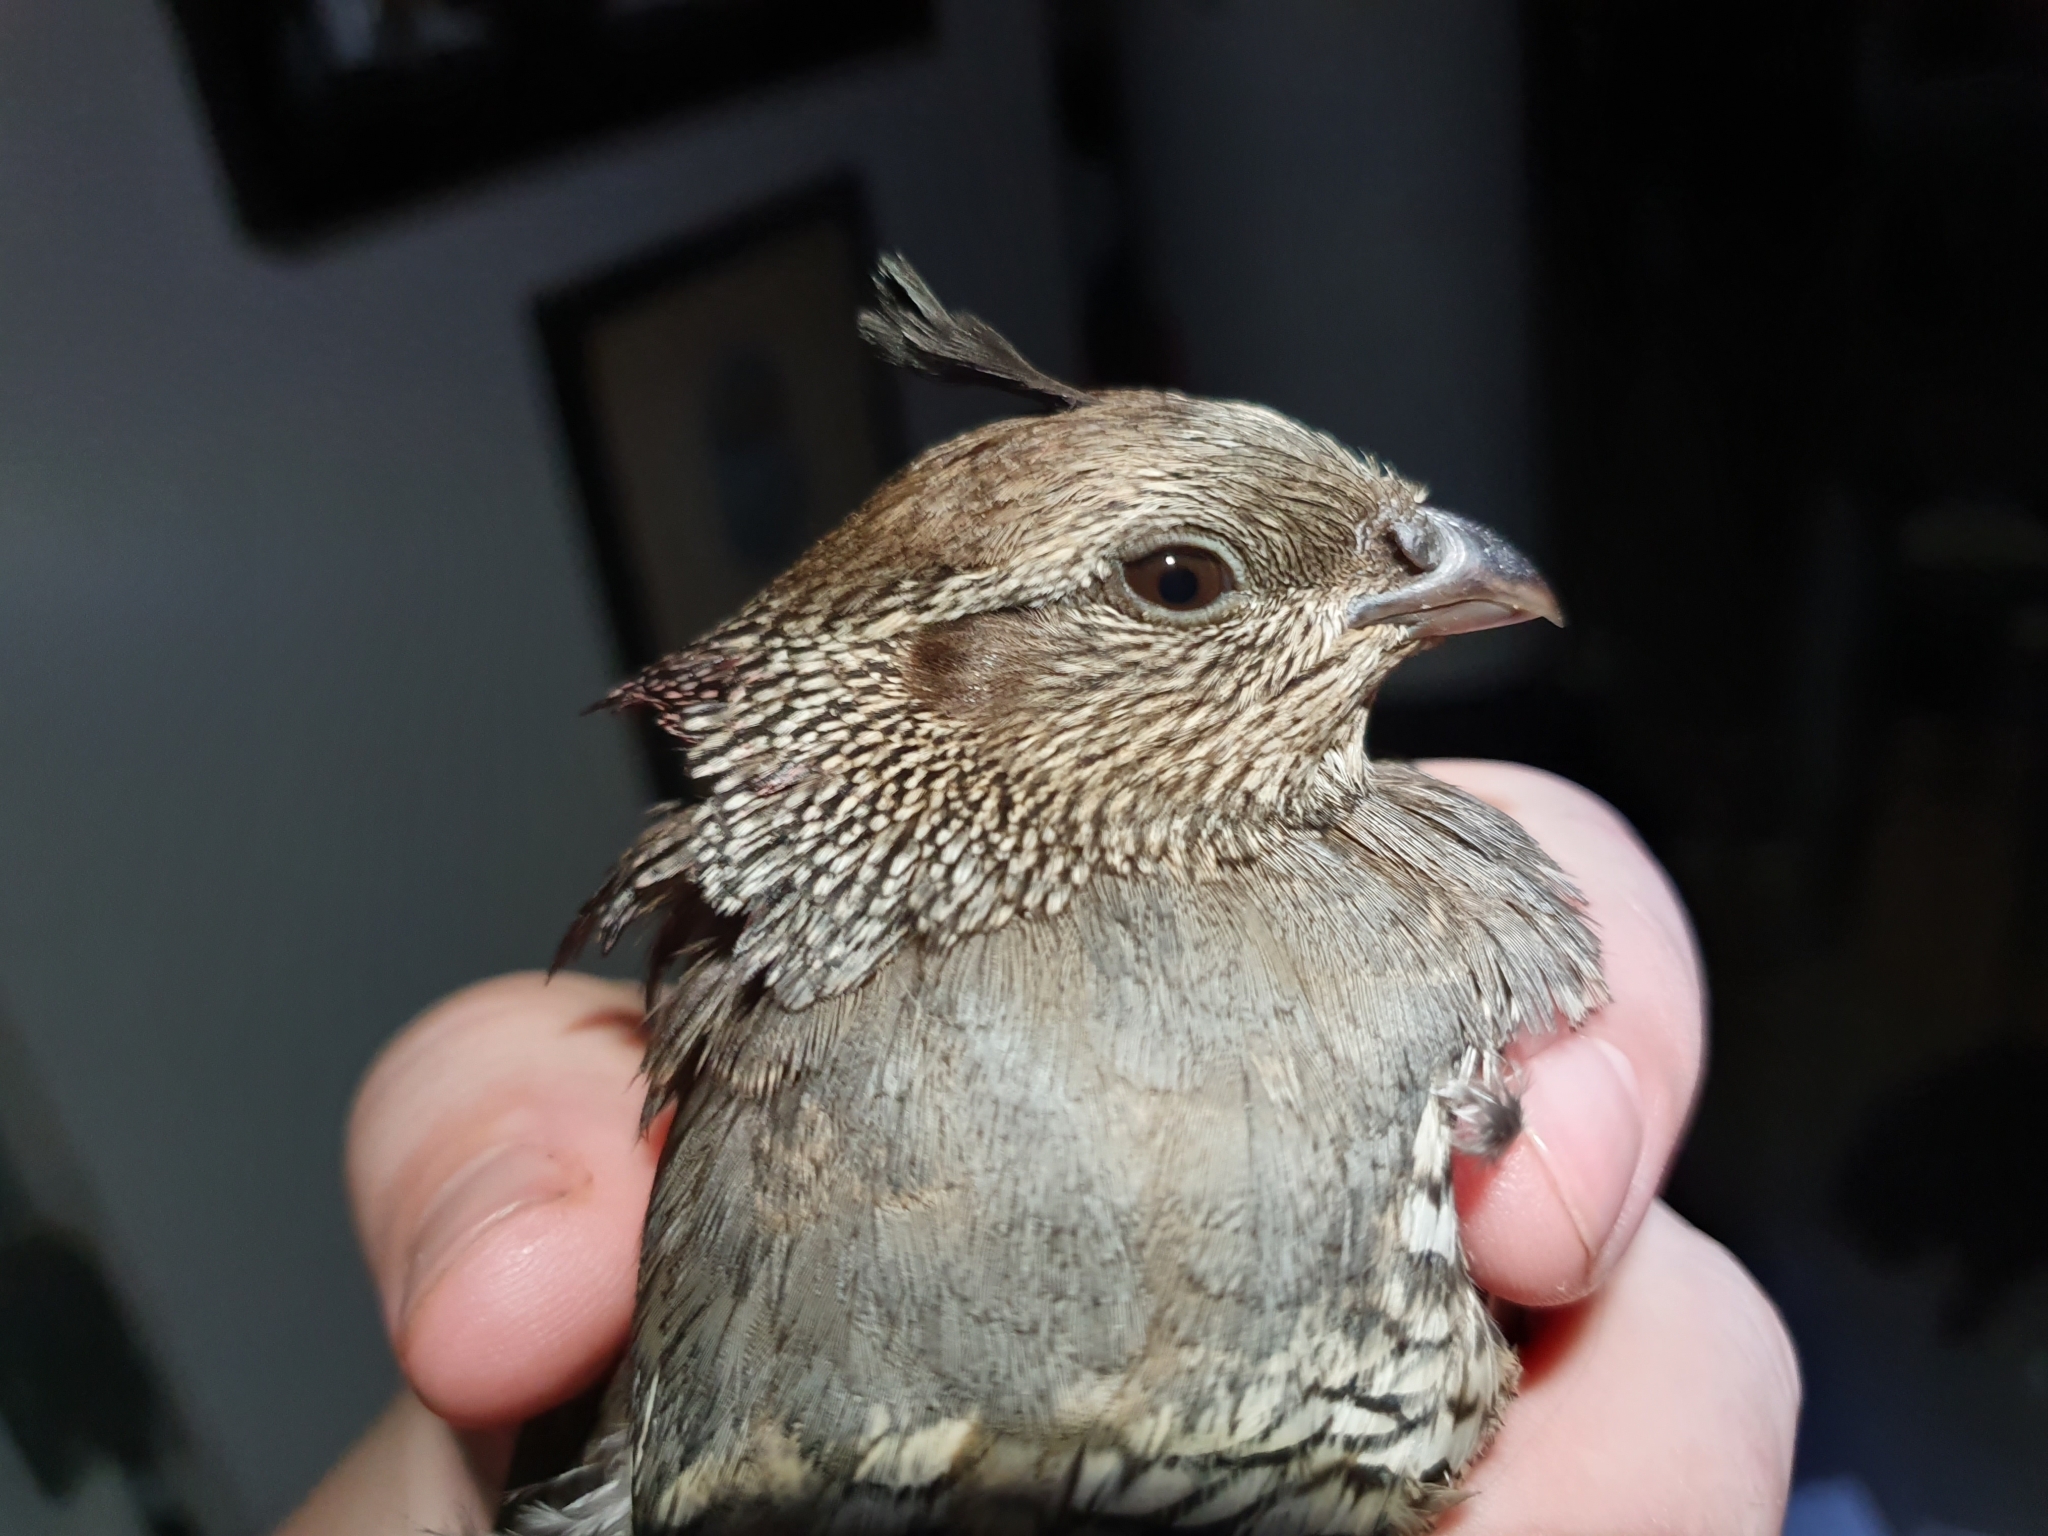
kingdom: Animalia
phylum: Chordata
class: Aves
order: Galliformes
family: Odontophoridae
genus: Callipepla
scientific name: Callipepla californica
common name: California quail
